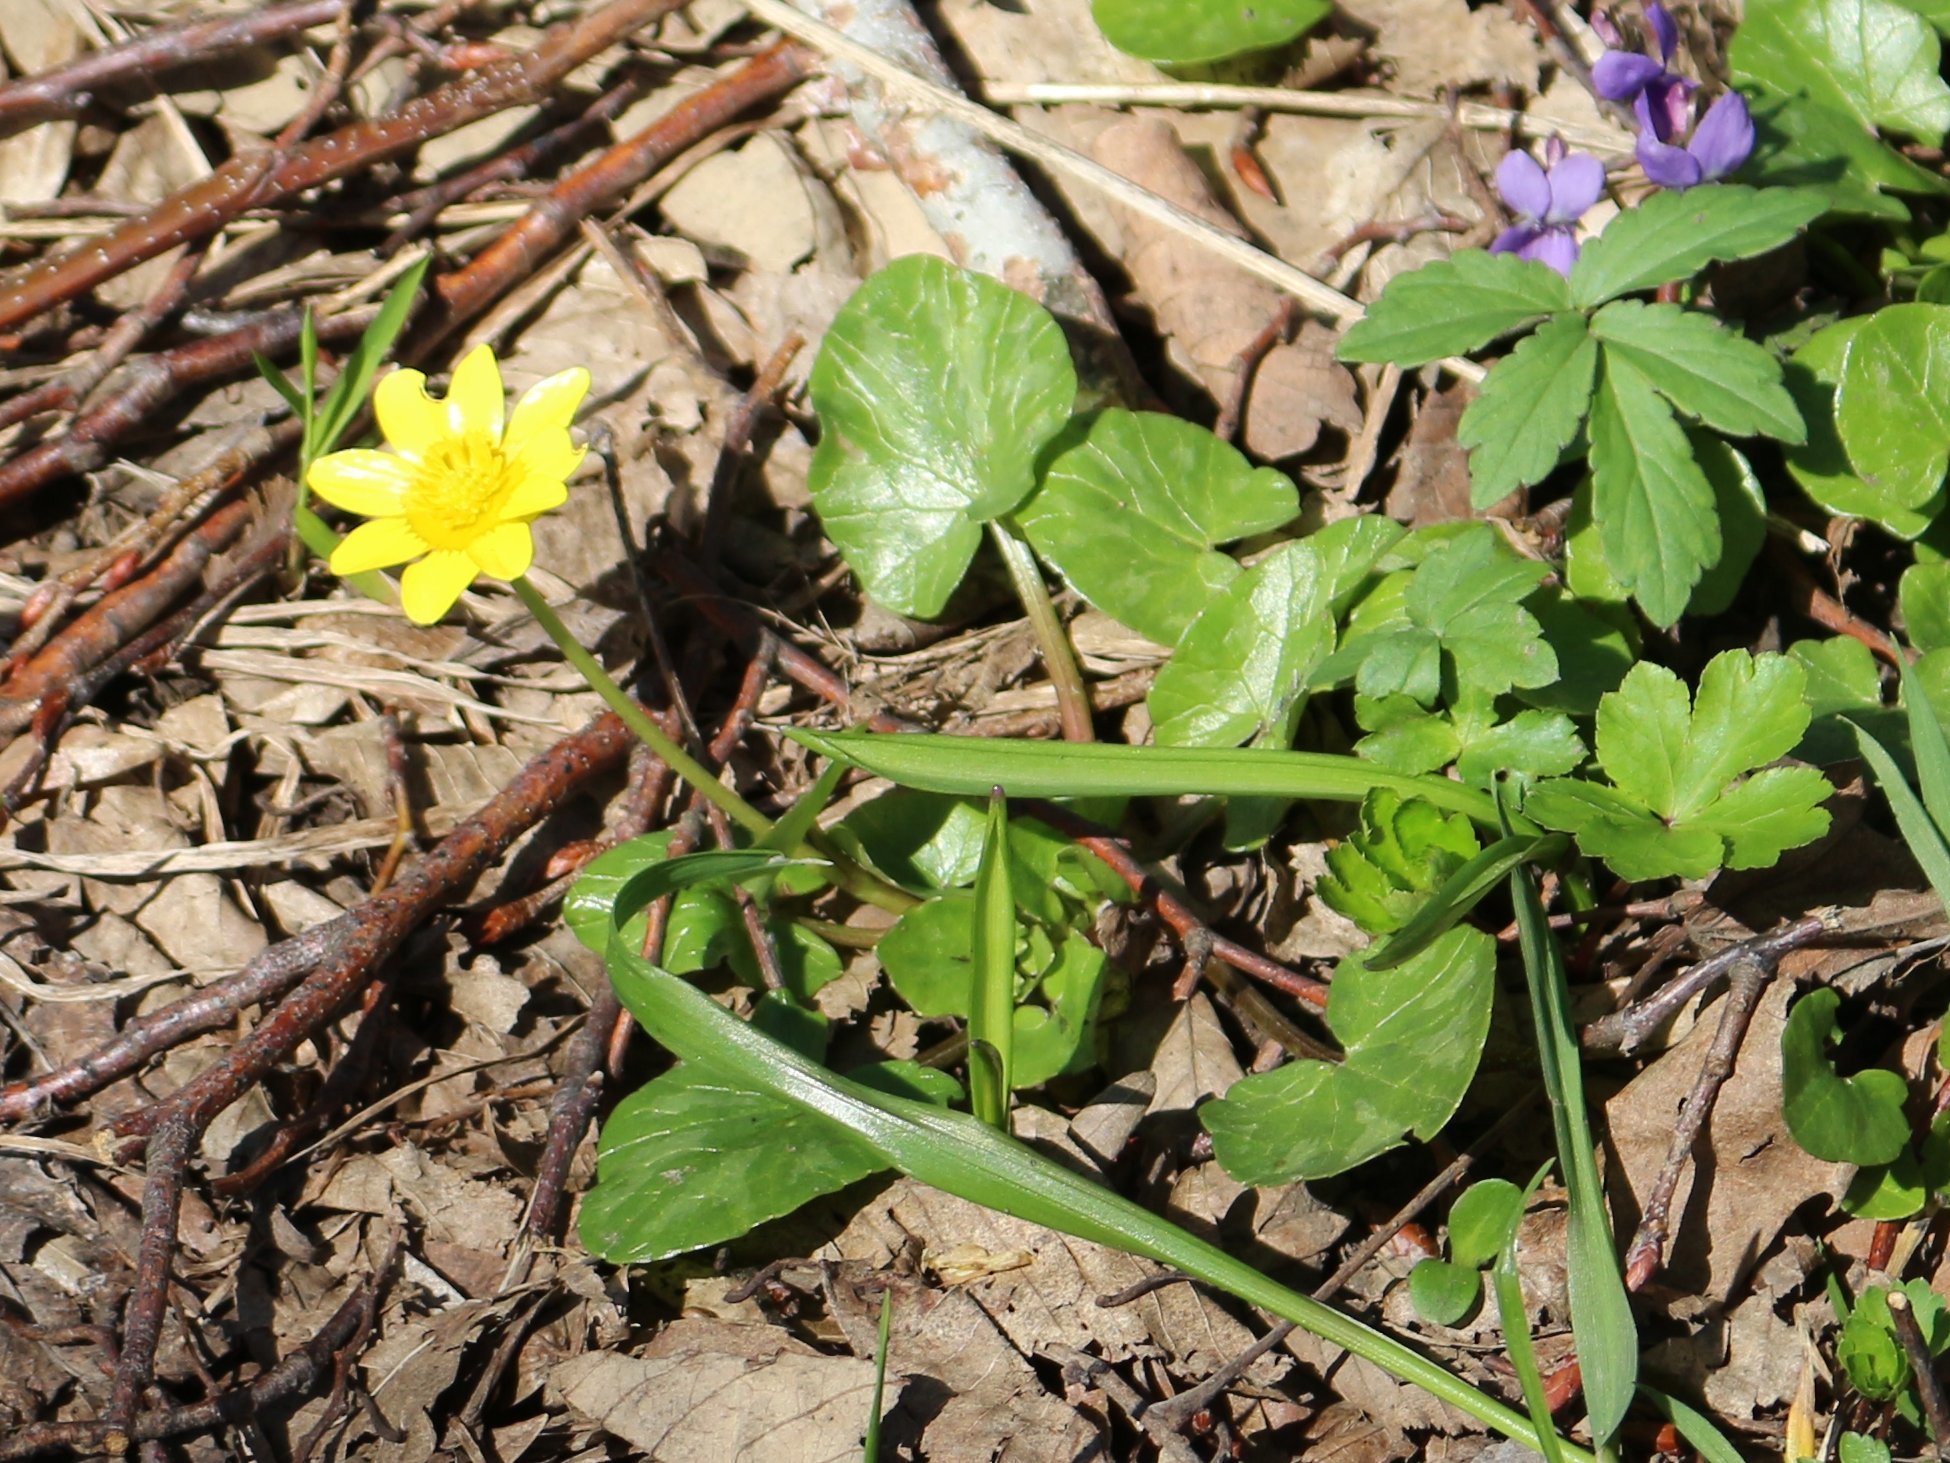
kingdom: Plantae
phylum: Tracheophyta
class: Magnoliopsida
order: Ranunculales
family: Ranunculaceae
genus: Ficaria
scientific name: Ficaria verna
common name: Lesser celandine
